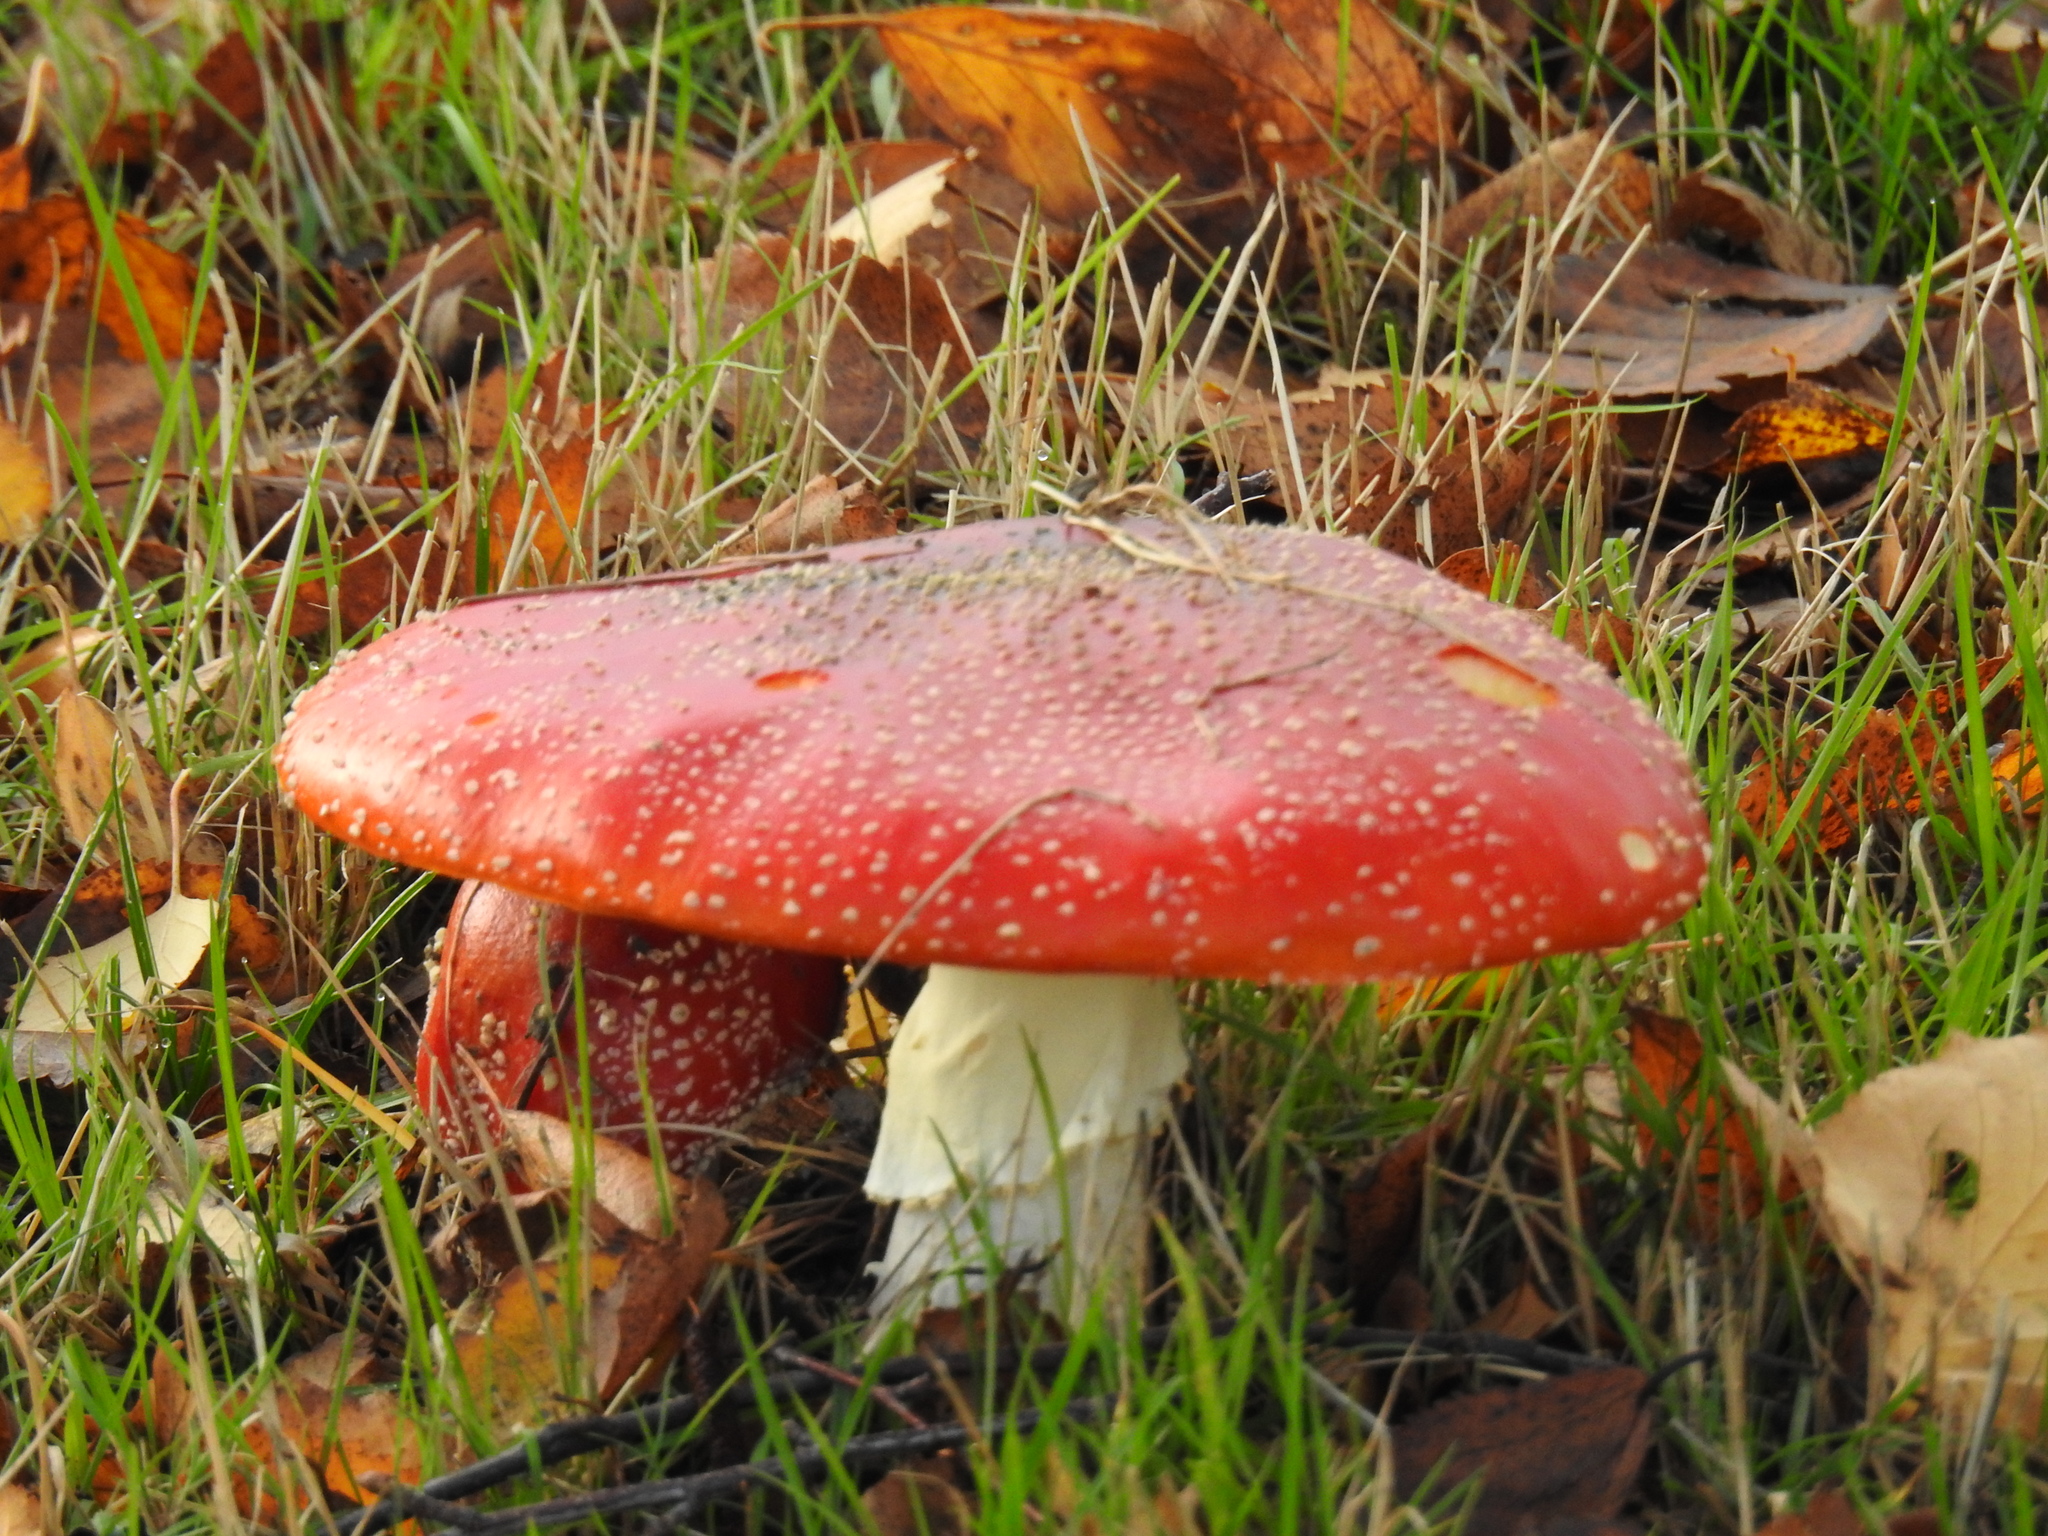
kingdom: Fungi
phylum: Basidiomycota
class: Agaricomycetes
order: Agaricales
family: Amanitaceae
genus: Amanita
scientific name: Amanita muscaria
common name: Fly agaric
